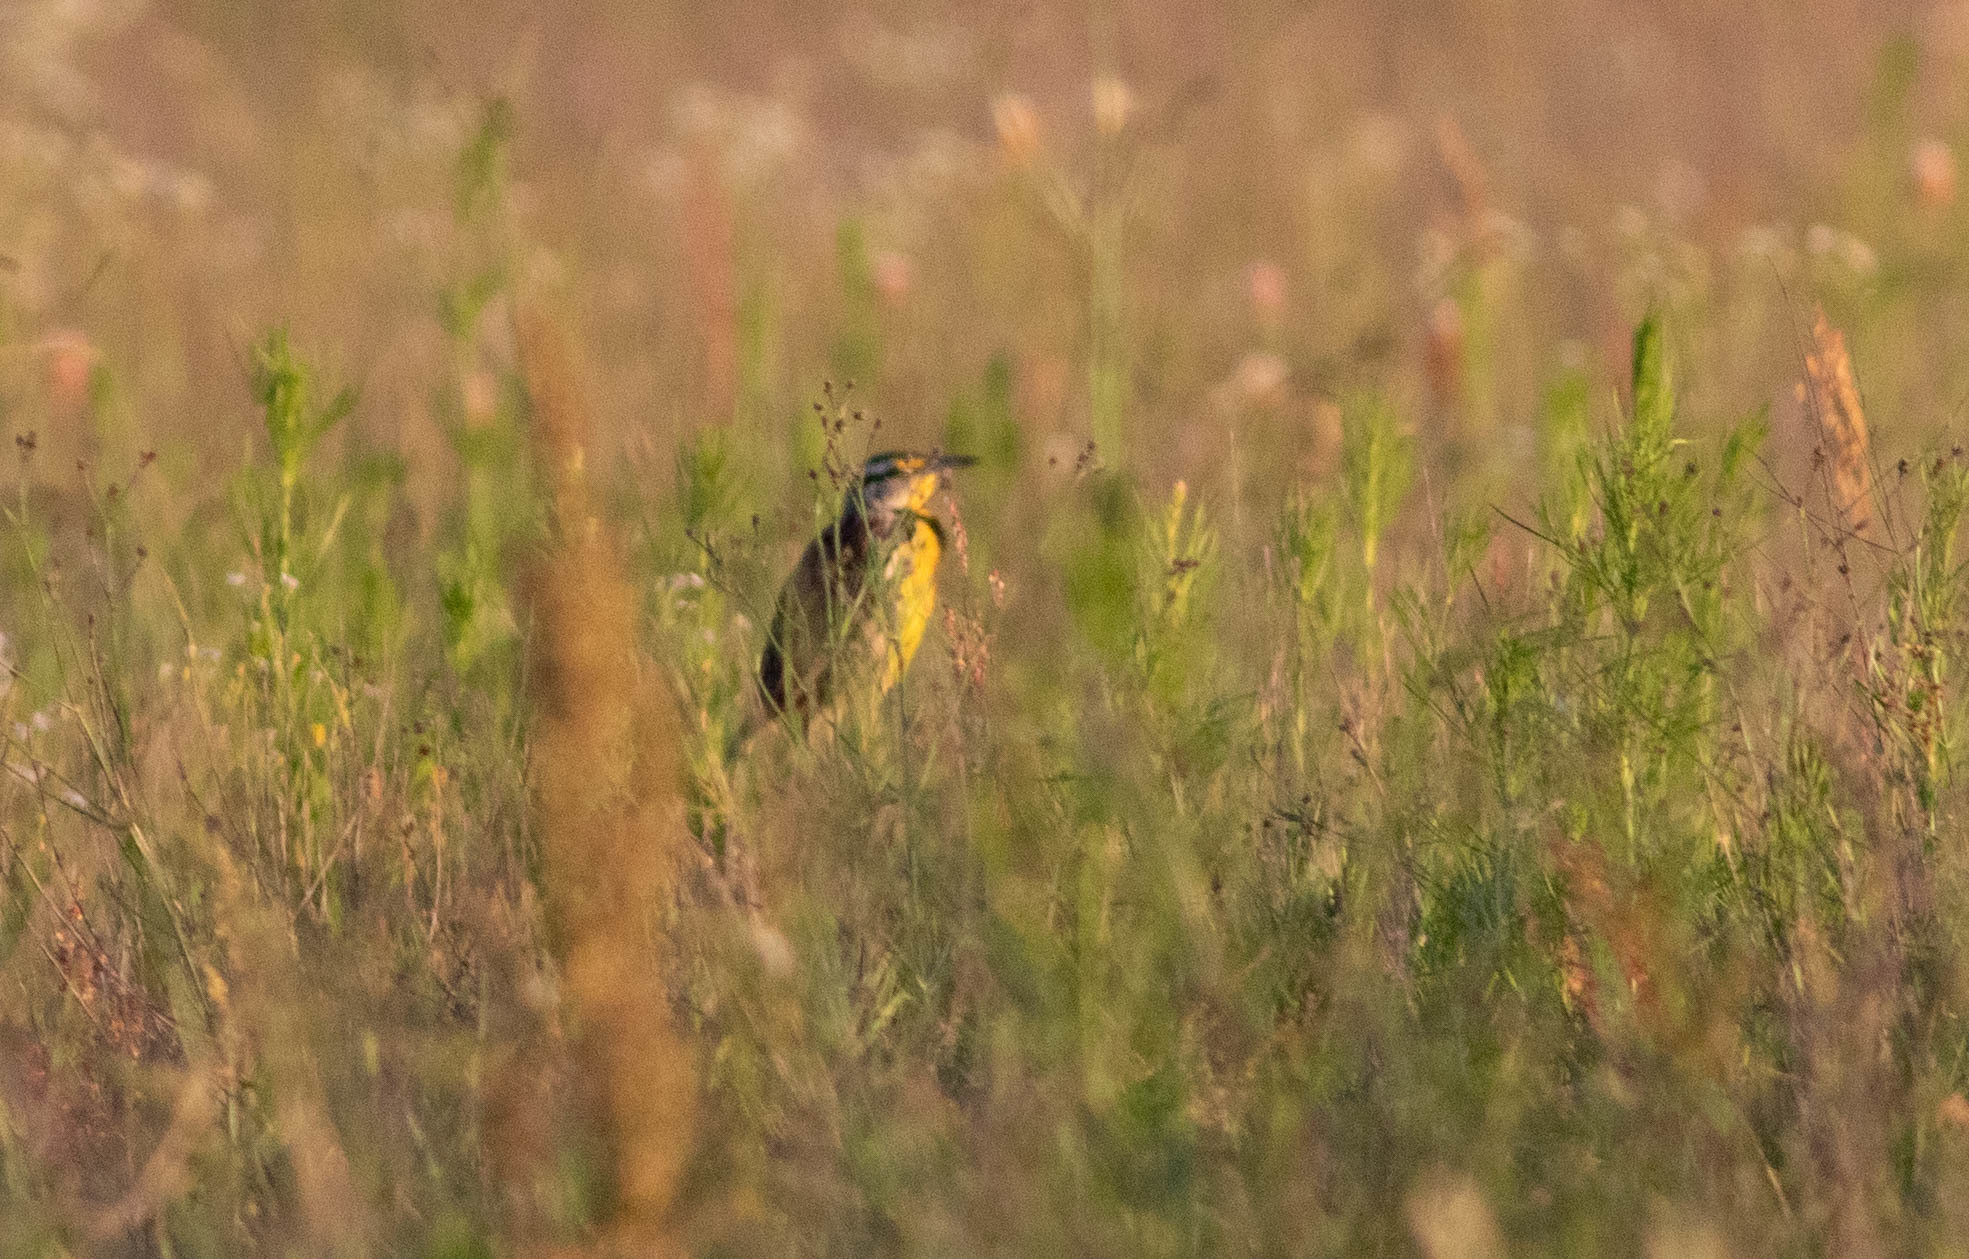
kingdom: Animalia
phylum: Chordata
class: Aves
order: Passeriformes
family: Icteridae
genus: Sturnella
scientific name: Sturnella magna
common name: Eastern meadowlark
